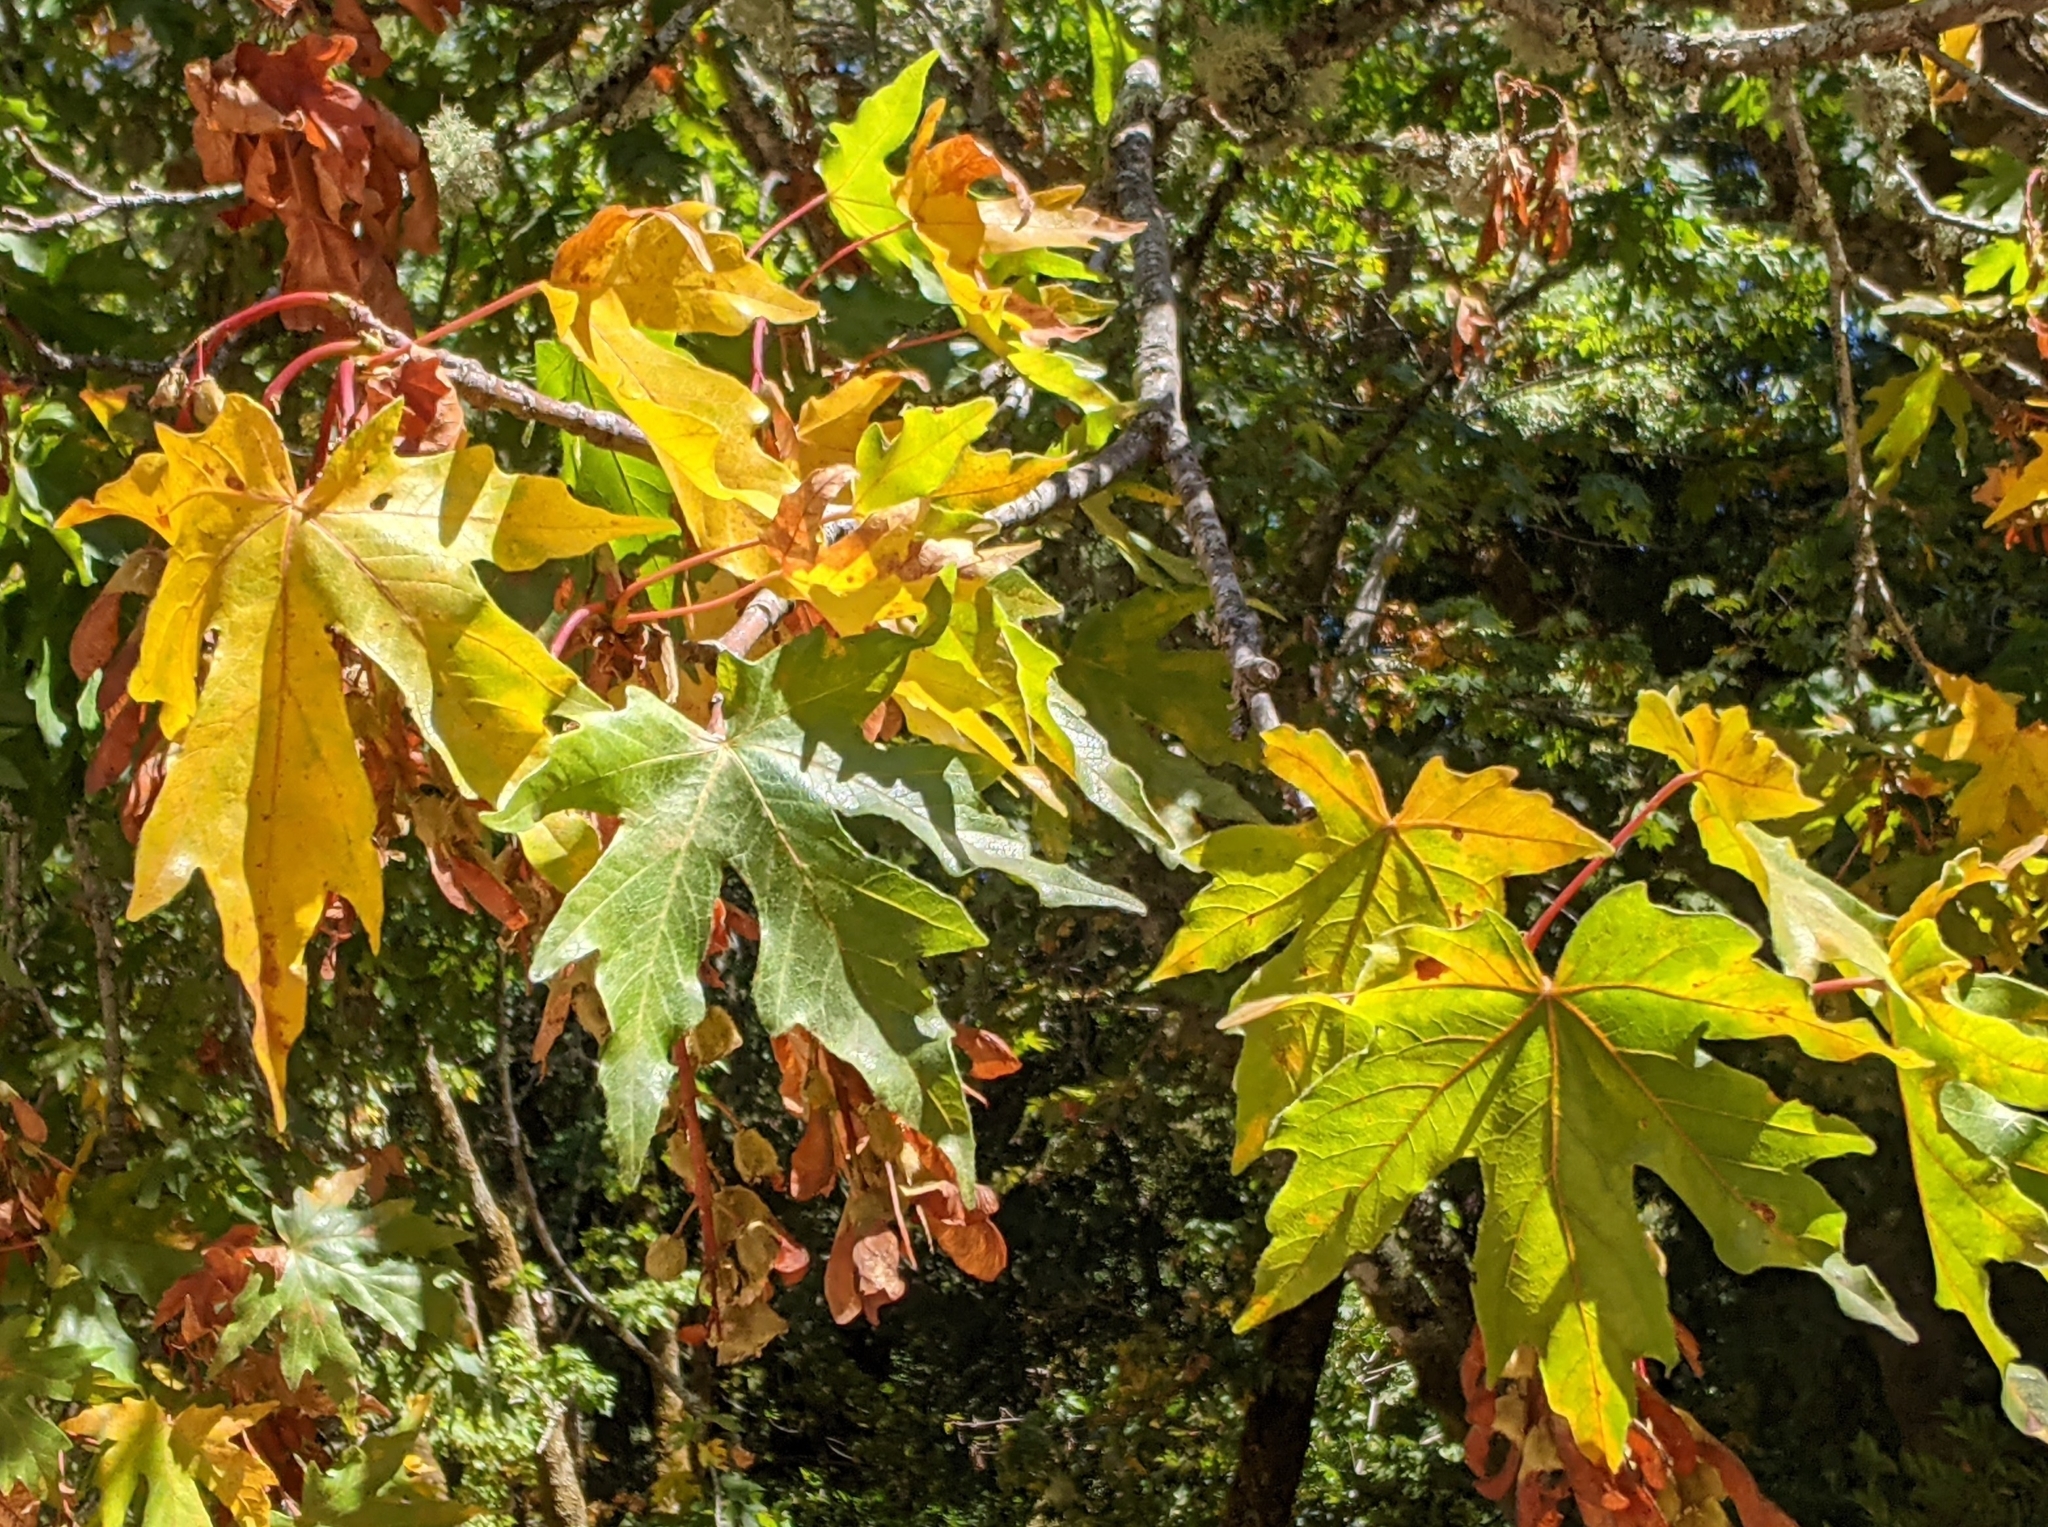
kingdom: Plantae
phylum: Tracheophyta
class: Magnoliopsida
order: Sapindales
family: Sapindaceae
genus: Acer
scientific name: Acer macrophyllum
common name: Oregon maple
